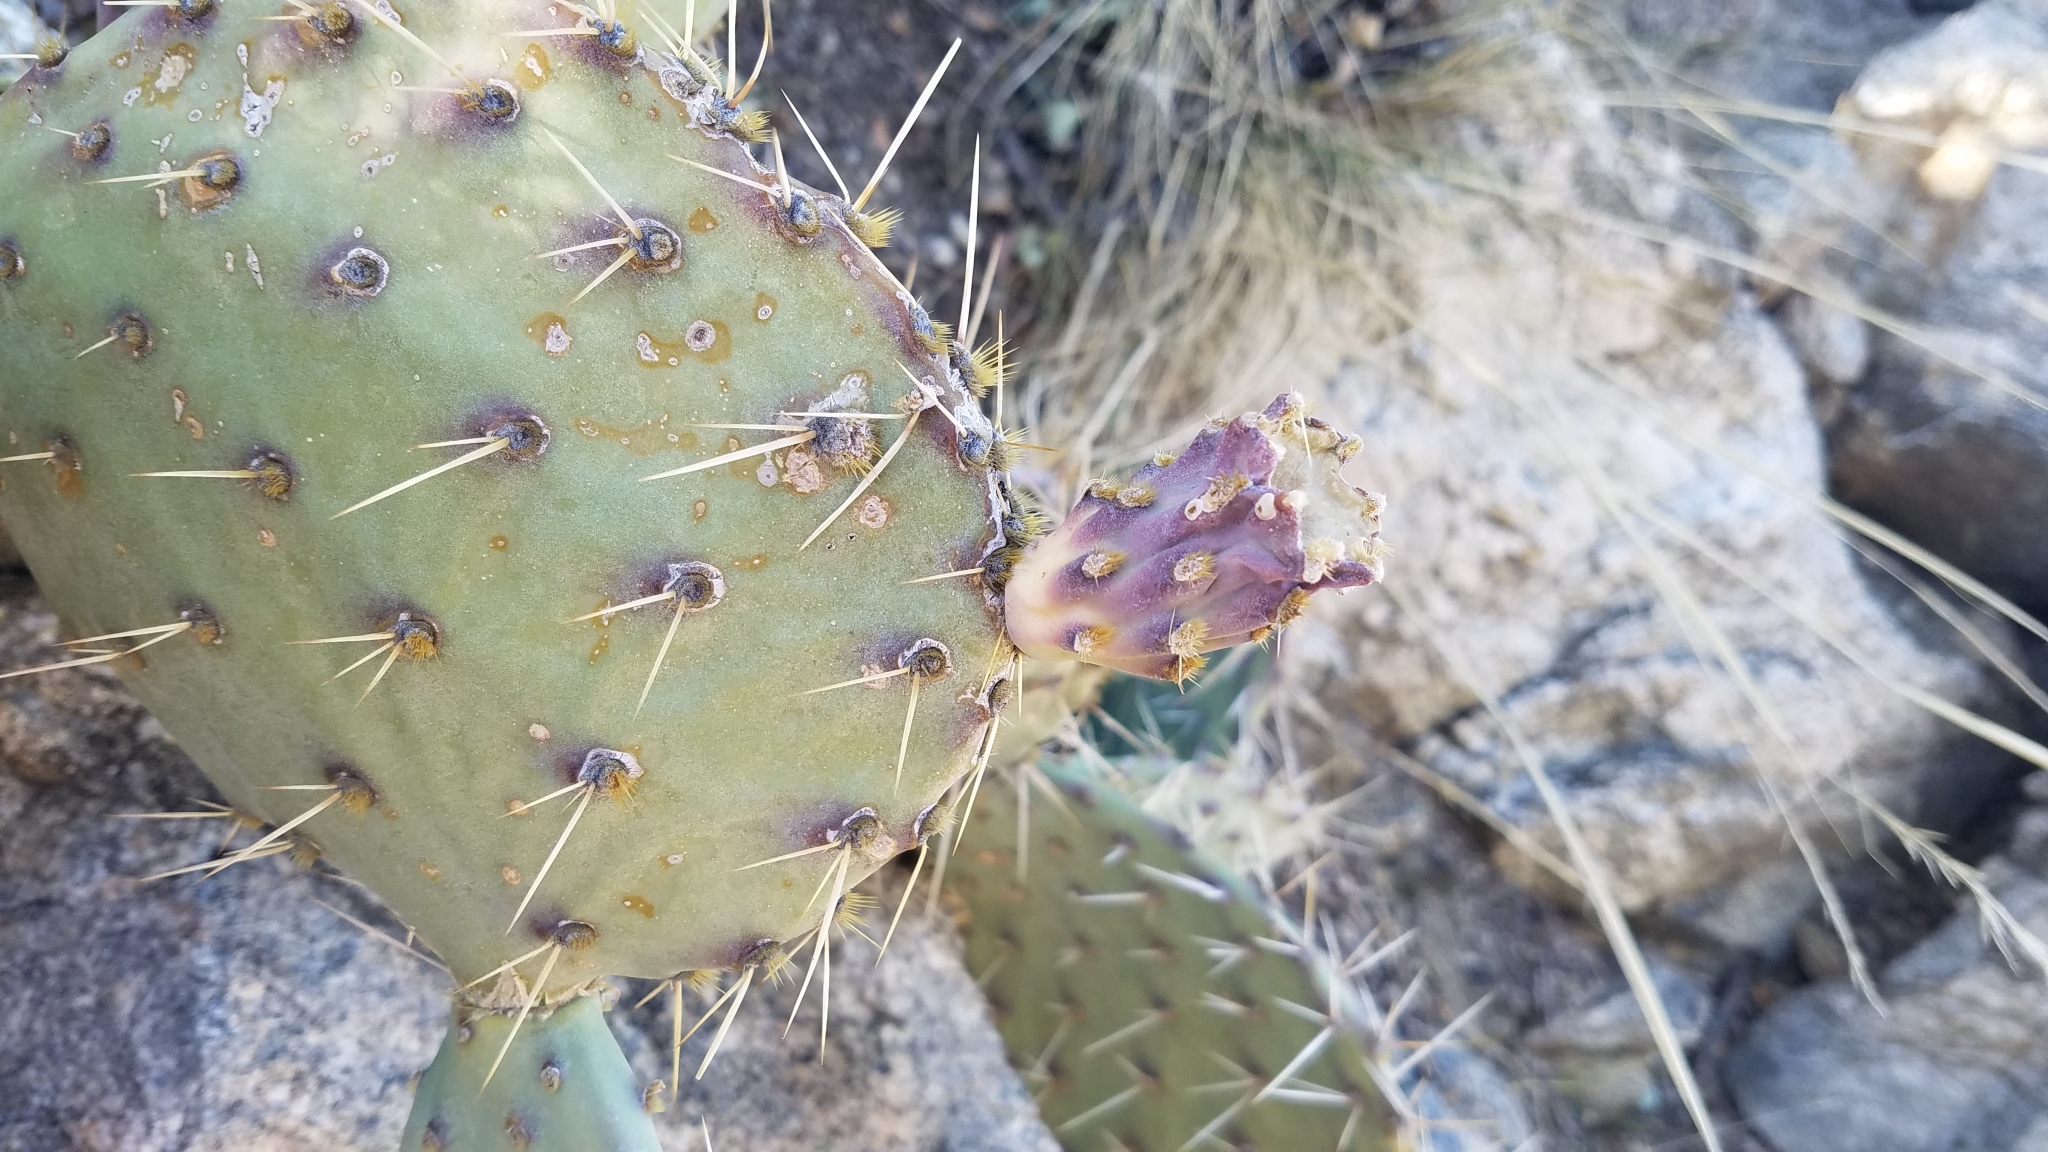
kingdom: Plantae
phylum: Tracheophyta
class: Magnoliopsida
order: Caryophyllales
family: Cactaceae
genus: Opuntia
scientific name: Opuntia phaeacantha
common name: New mexico prickly-pear
